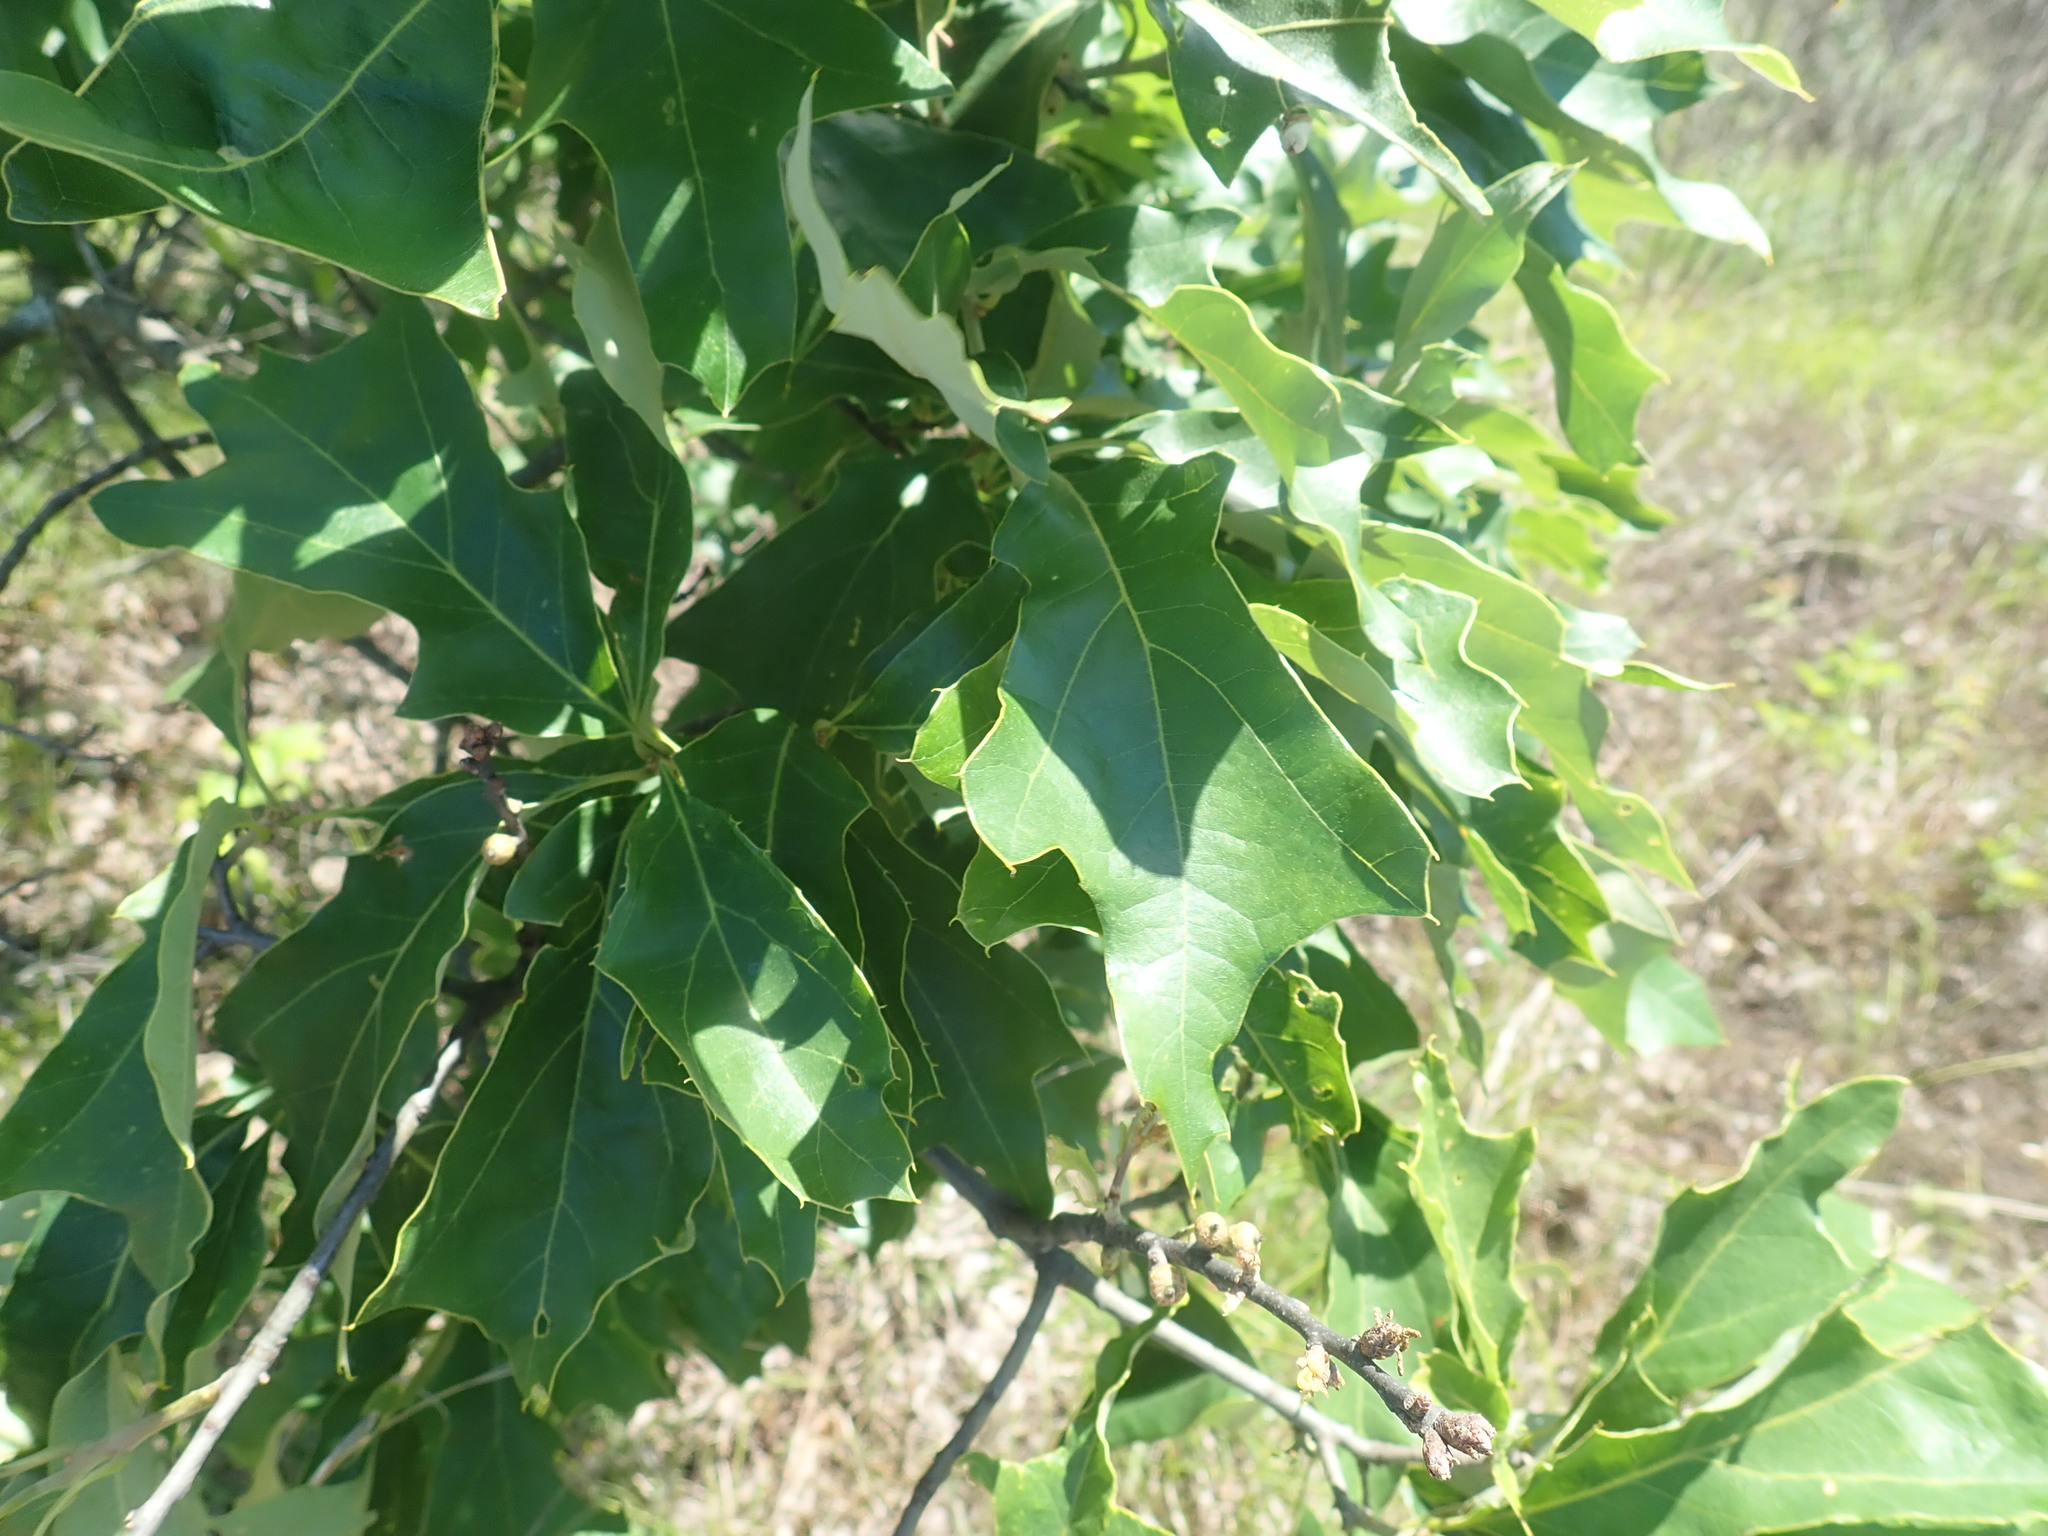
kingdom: Plantae
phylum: Tracheophyta
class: Magnoliopsida
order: Fagales
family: Fagaceae
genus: Quercus
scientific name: Quercus ilicifolia
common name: Bear oak
